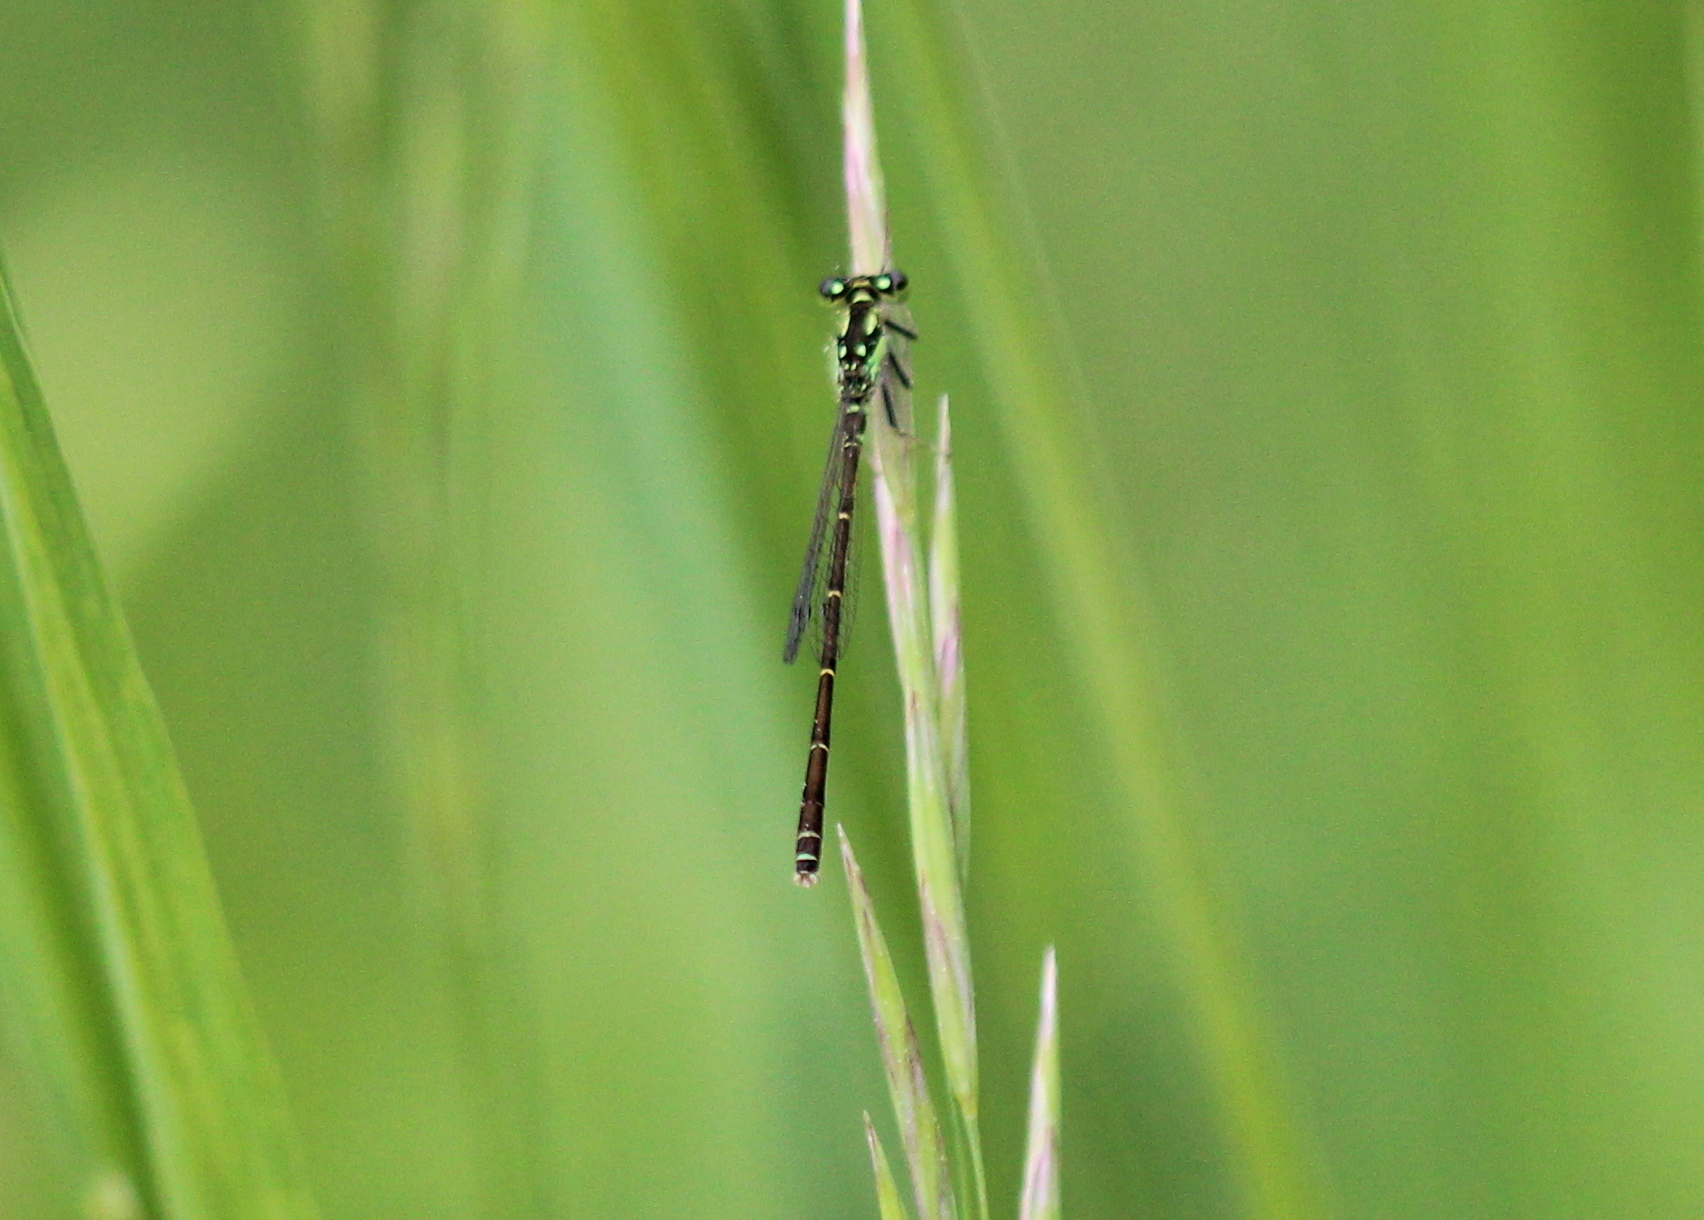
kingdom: Animalia
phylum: Arthropoda
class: Insecta
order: Odonata
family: Coenagrionidae
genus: Ischnura
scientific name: Ischnura posita
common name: Fragile forktail
